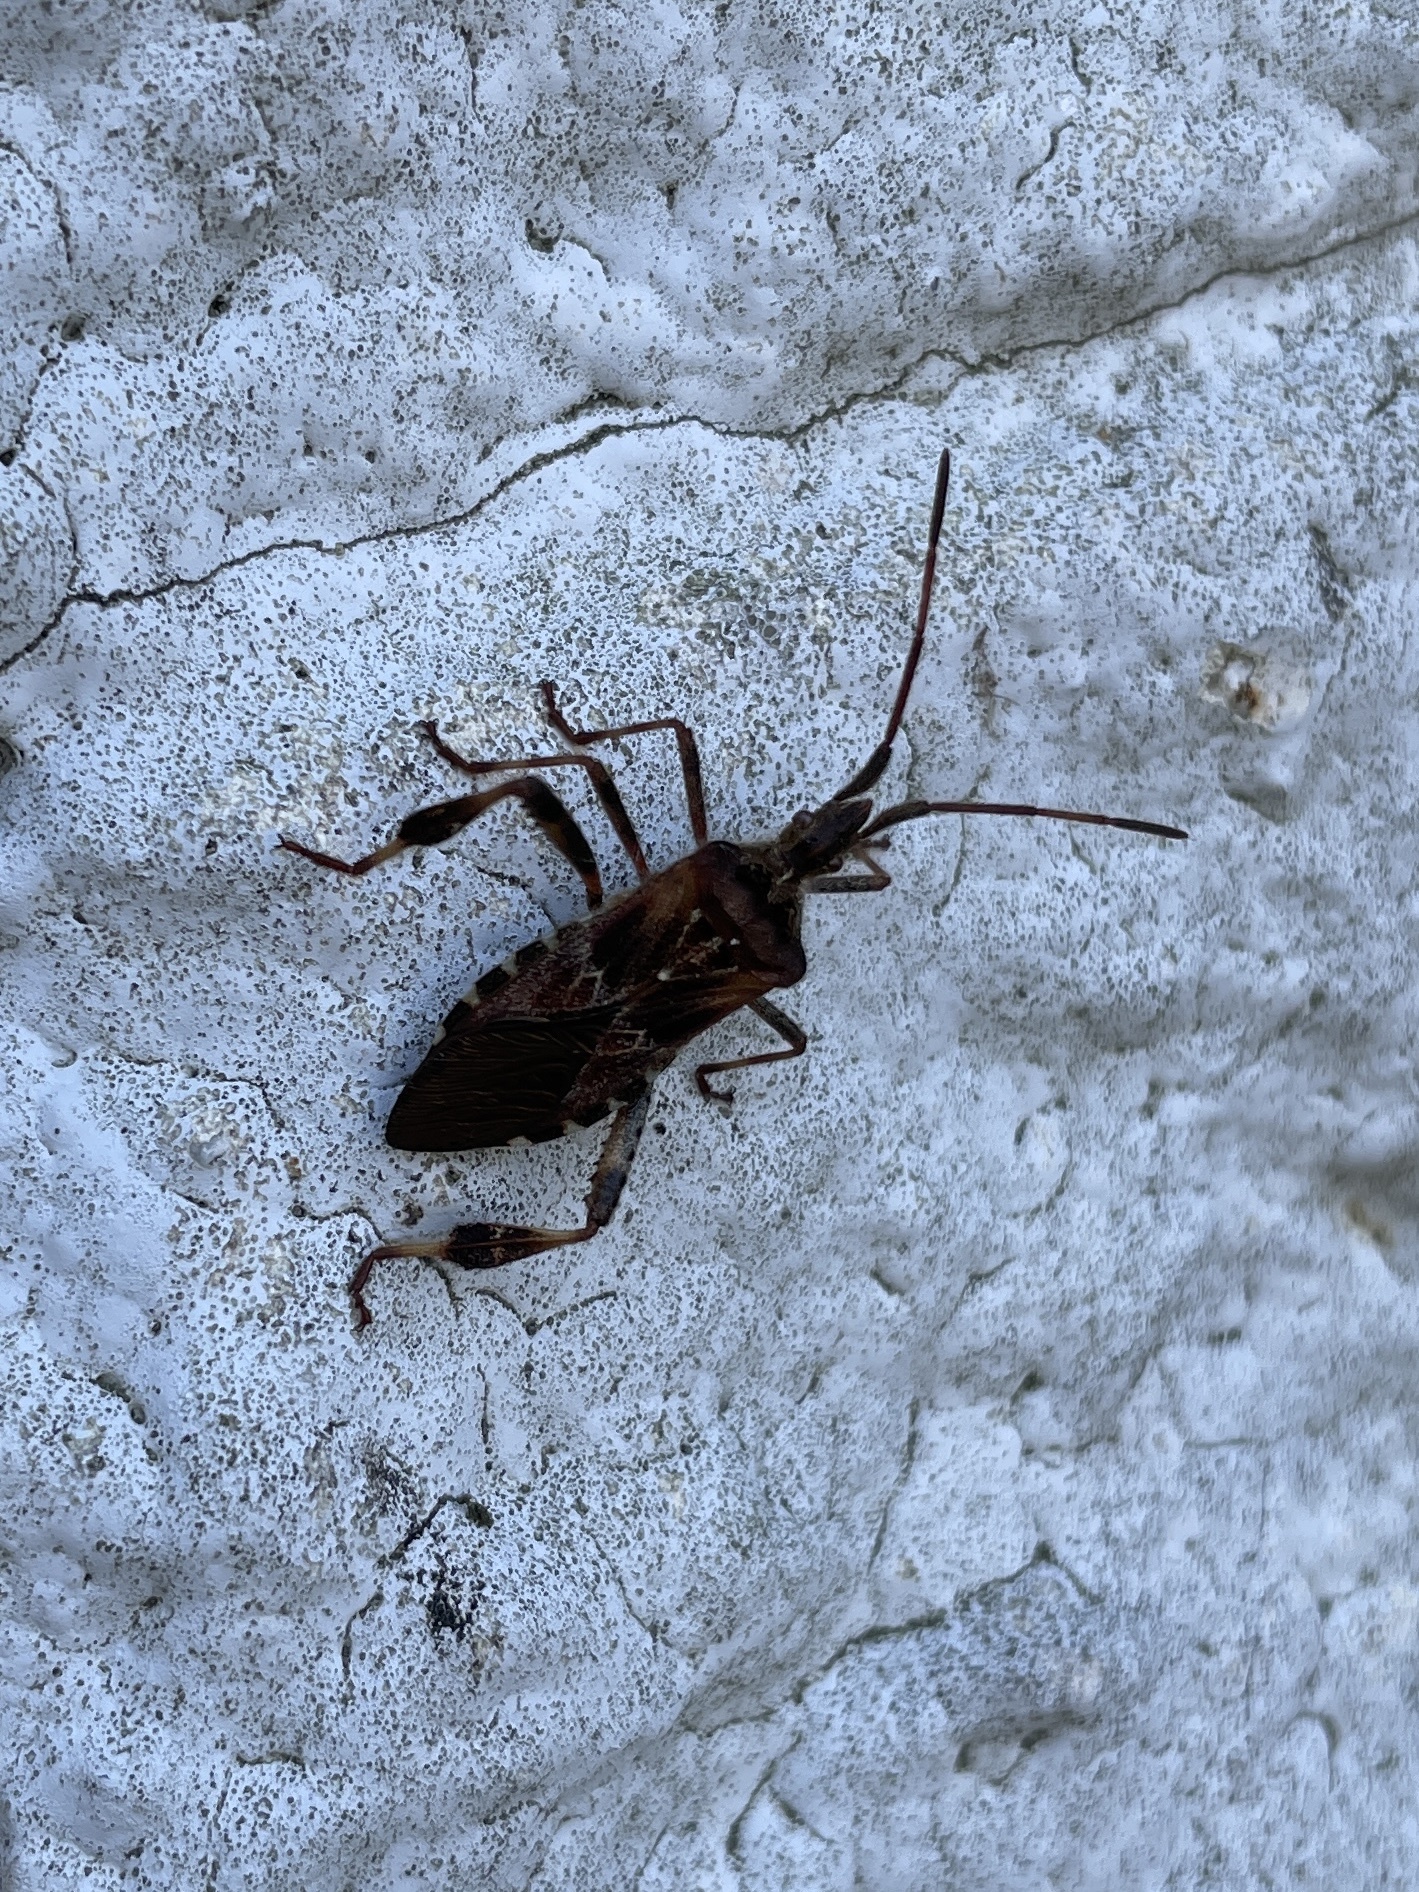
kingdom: Animalia
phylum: Arthropoda
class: Insecta
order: Hemiptera
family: Coreidae
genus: Leptoglossus
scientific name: Leptoglossus occidentalis
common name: Western conifer-seed bug
